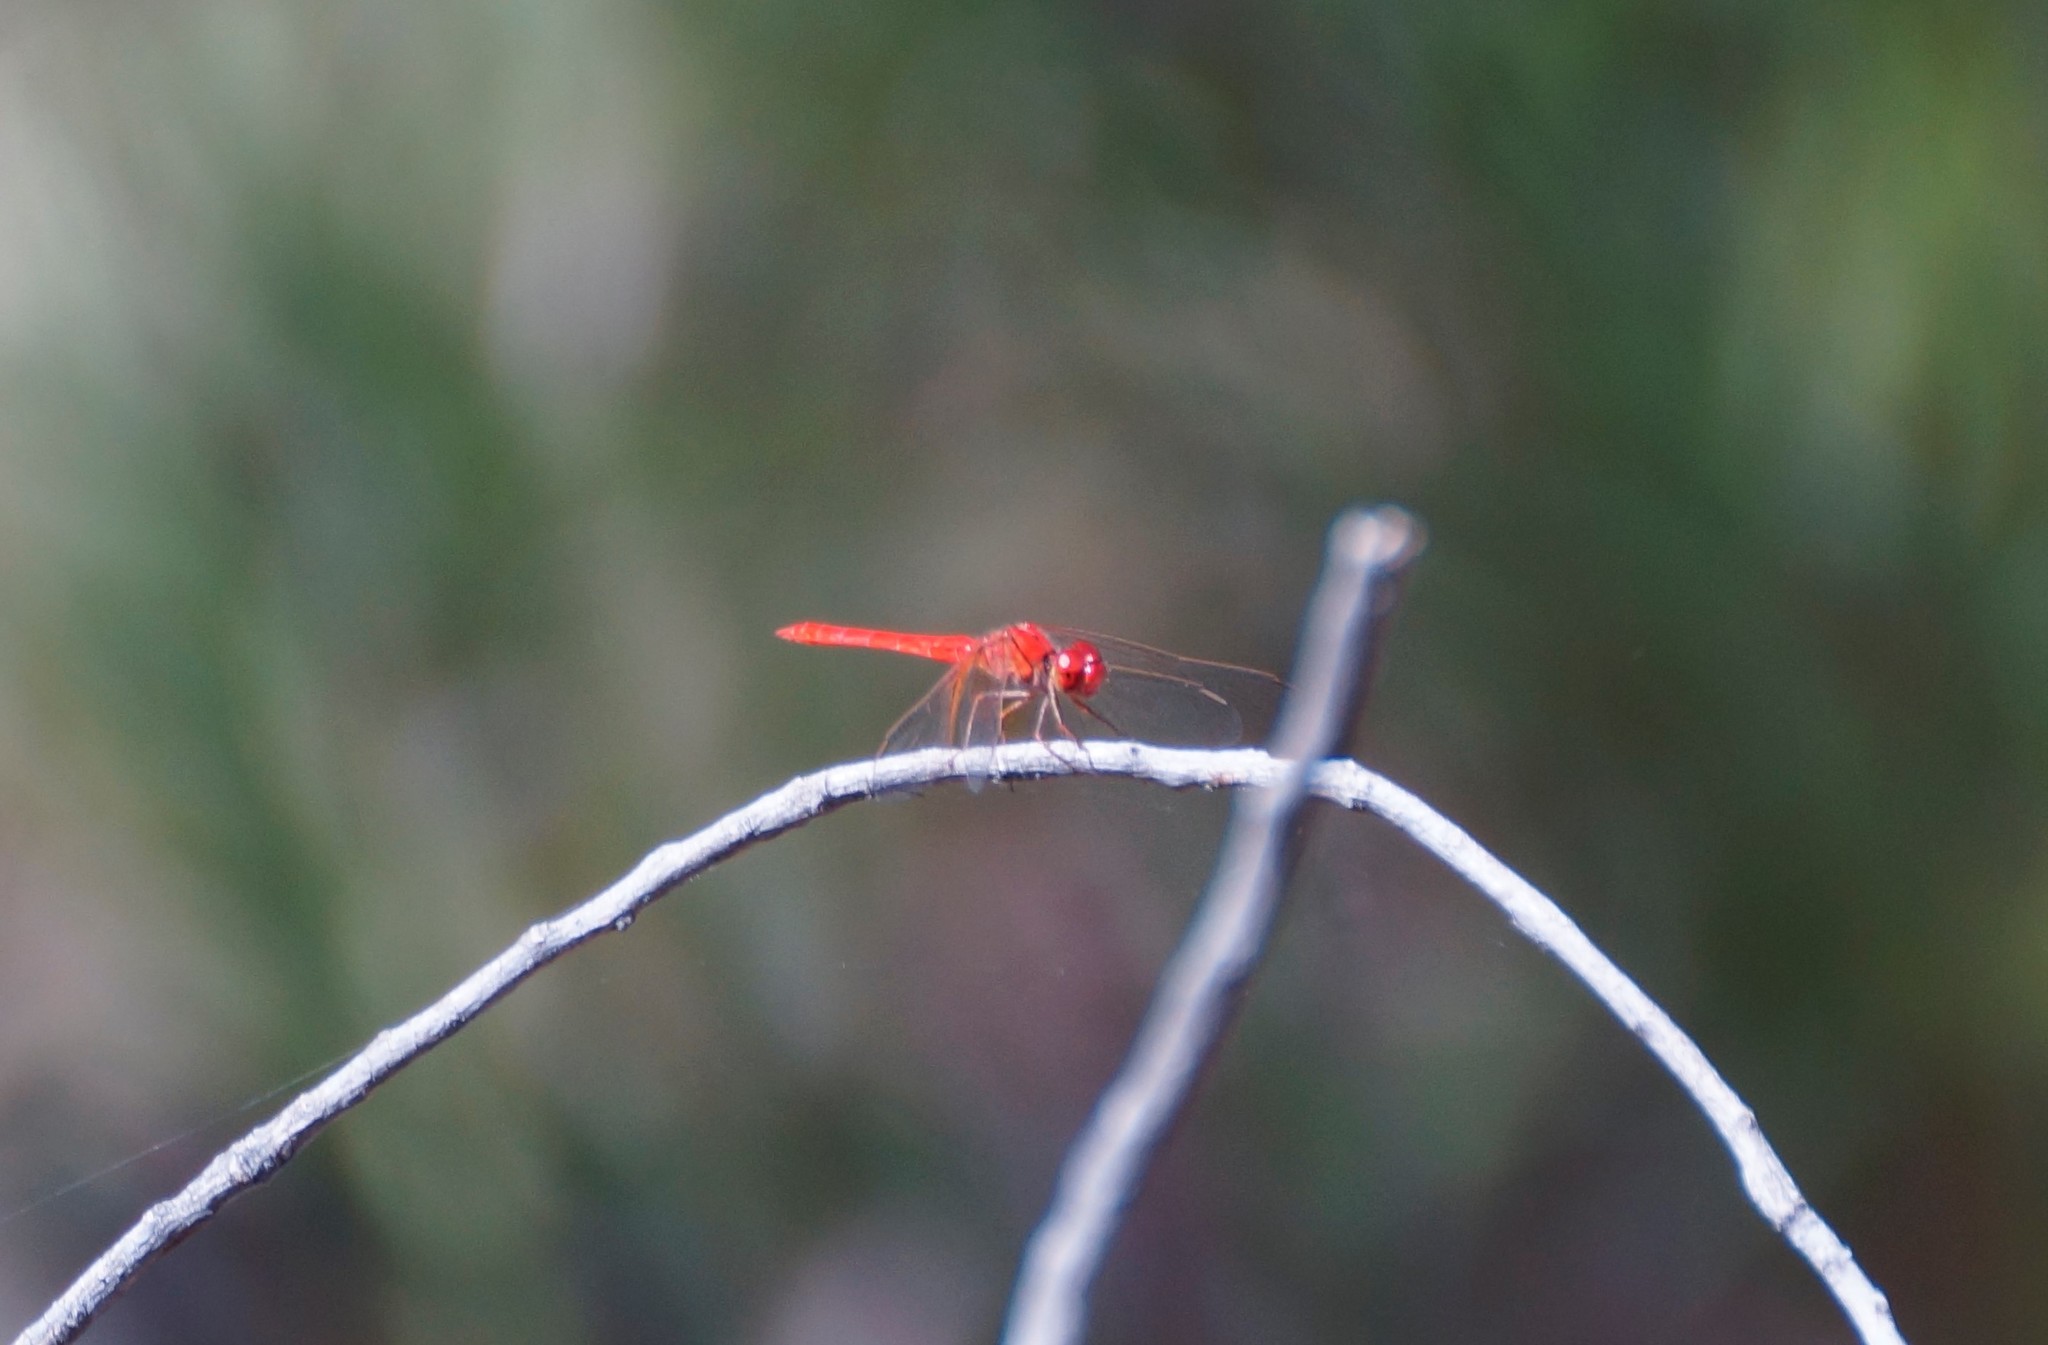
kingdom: Animalia
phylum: Arthropoda
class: Insecta
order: Odonata
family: Libellulidae
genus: Diplacodes
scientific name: Diplacodes haematodes
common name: Scarlet percher
